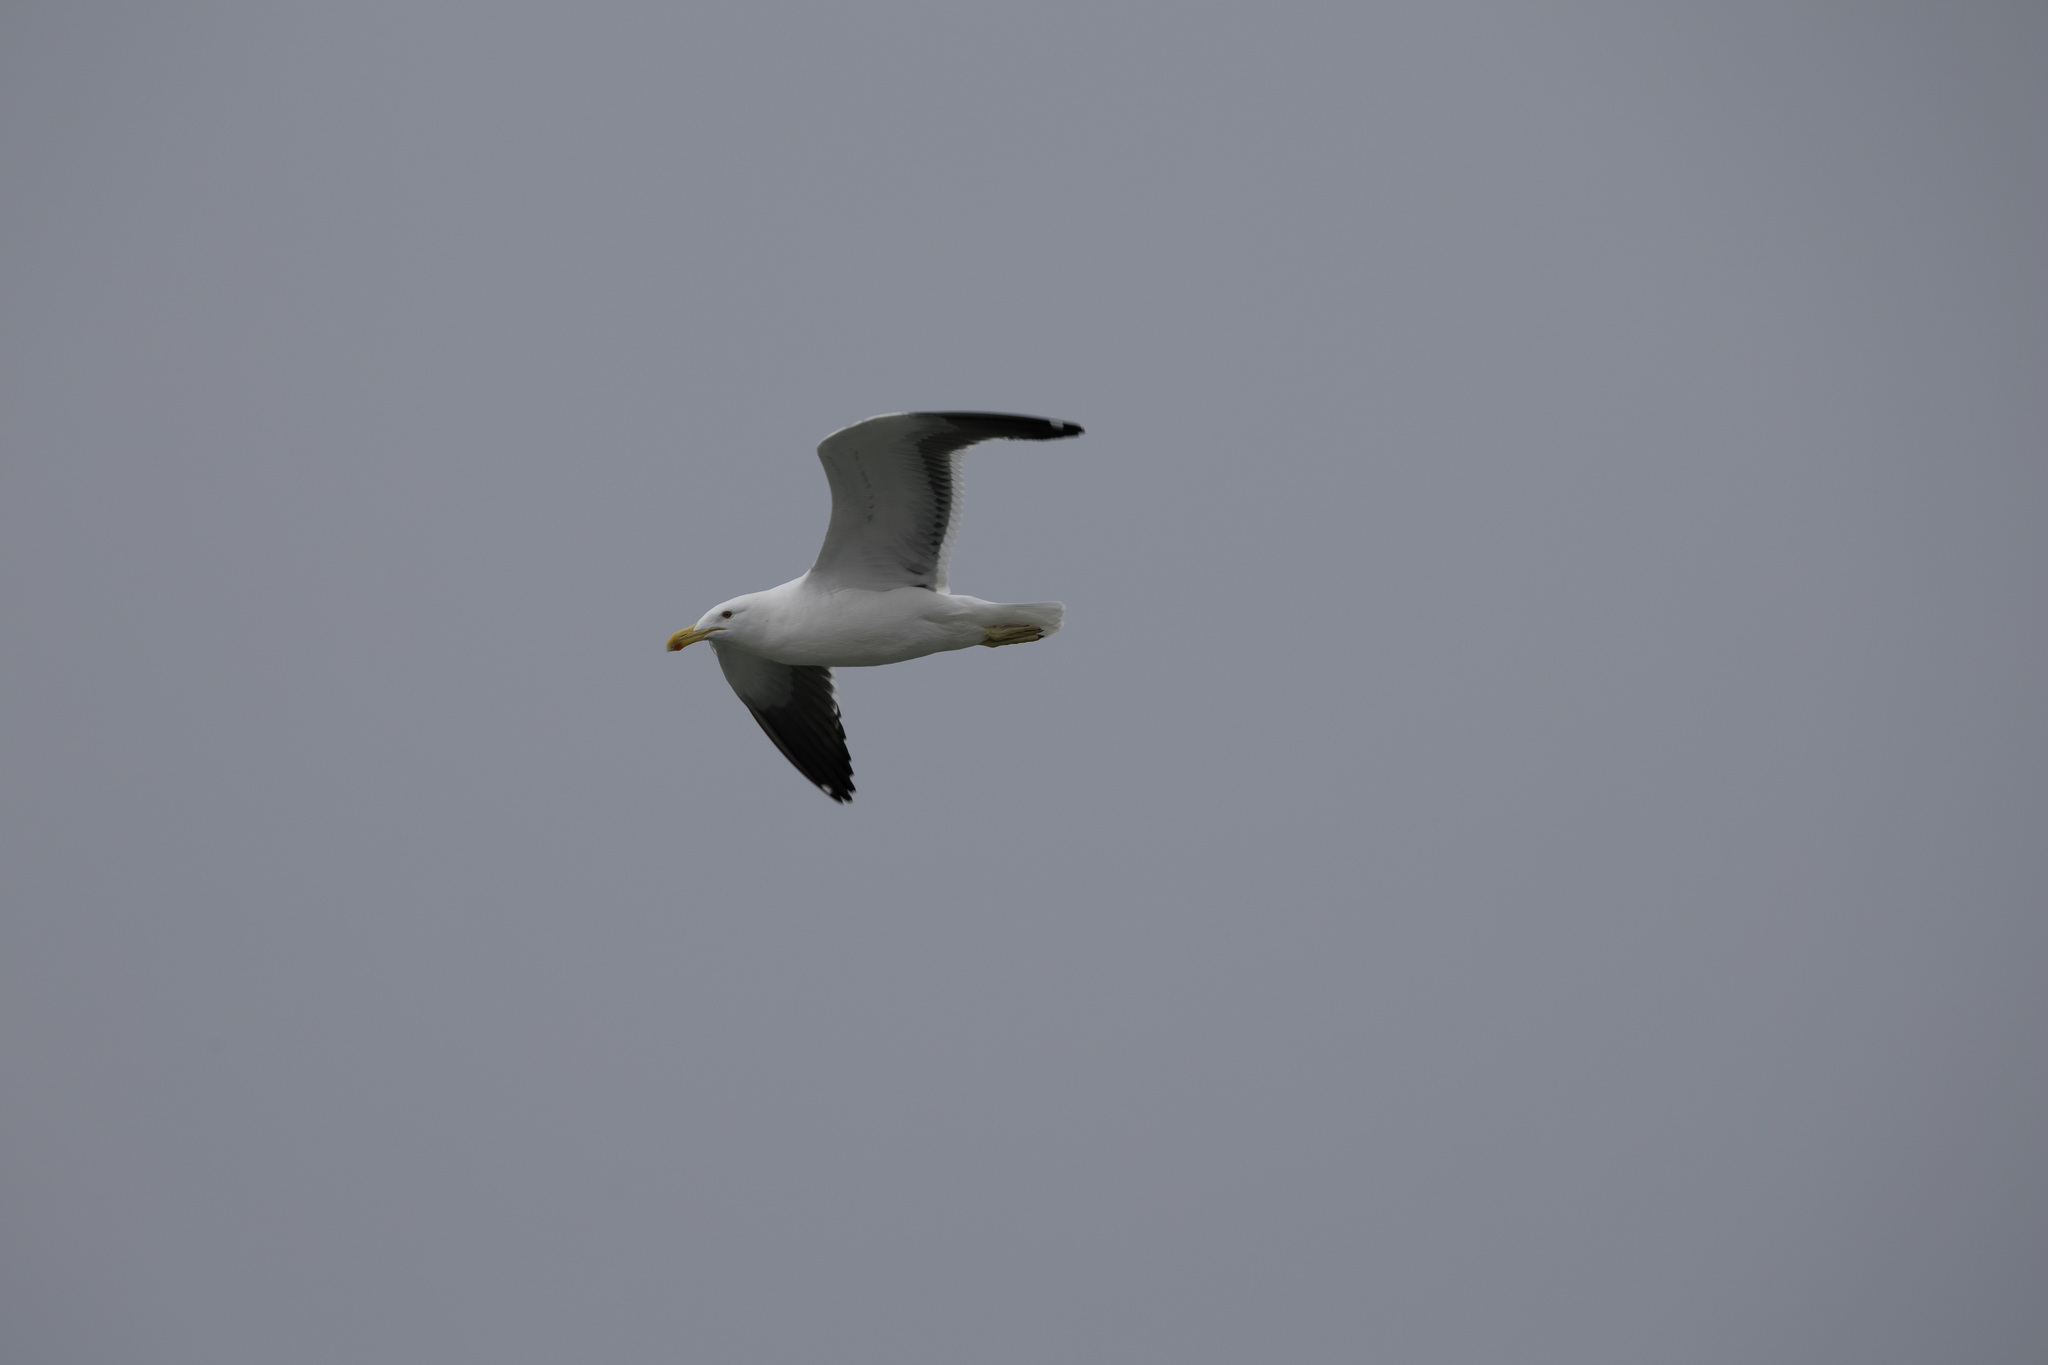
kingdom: Animalia
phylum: Chordata
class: Aves
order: Charadriiformes
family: Laridae
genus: Larus
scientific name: Larus dominicanus
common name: Kelp gull
